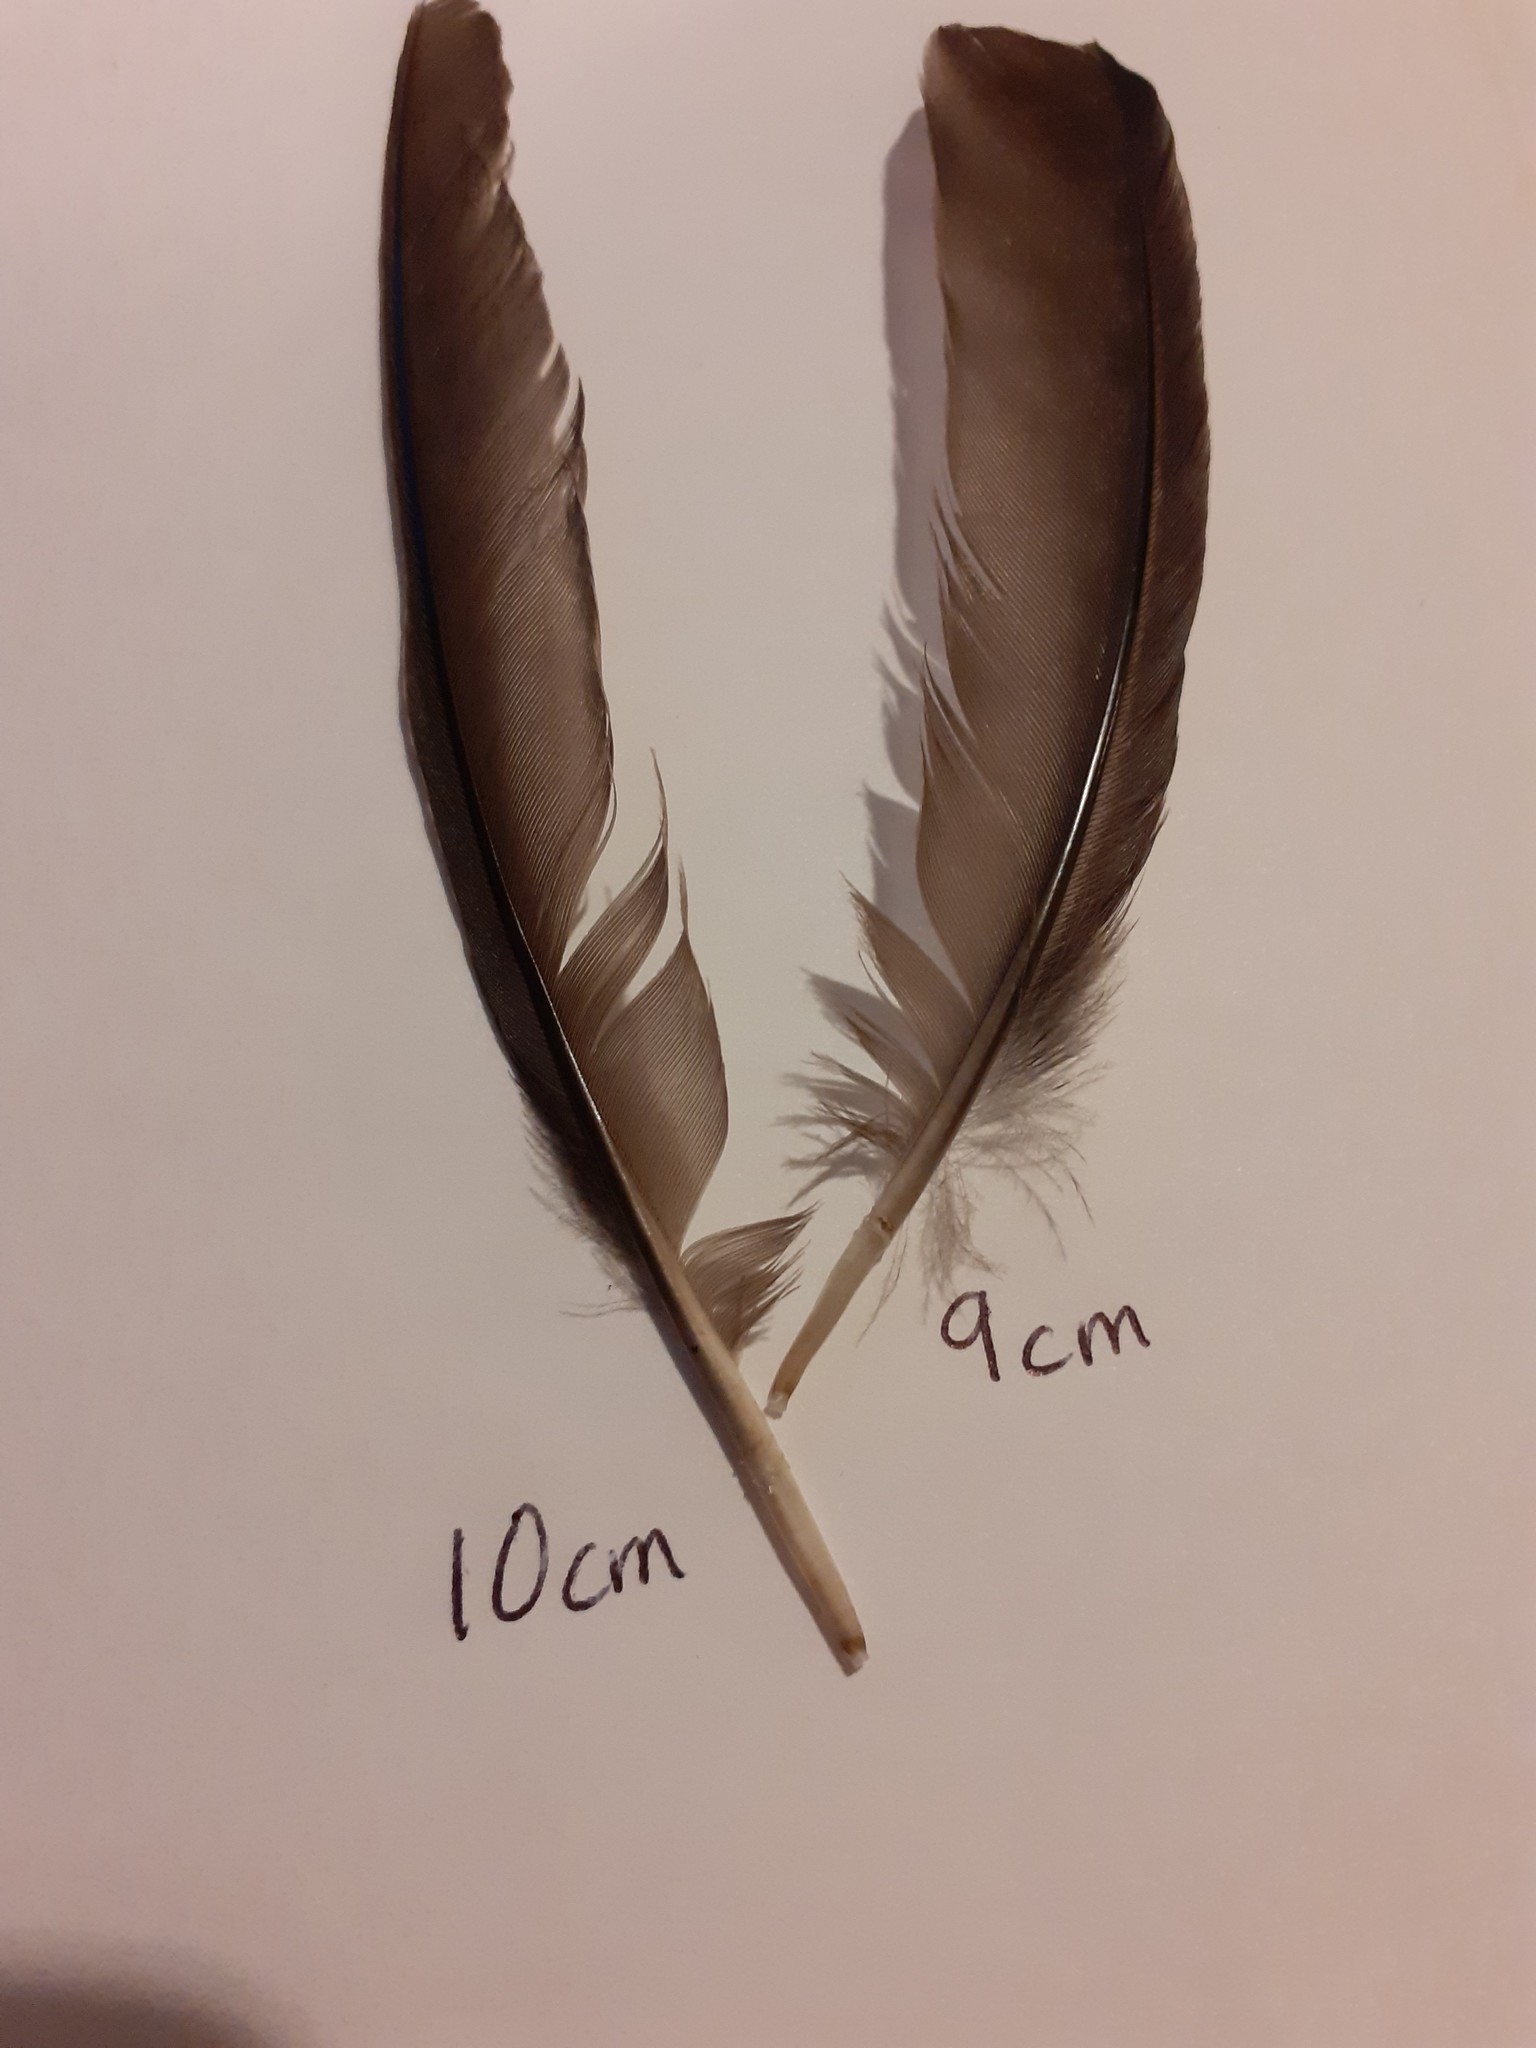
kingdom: Animalia
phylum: Chordata
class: Aves
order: Passeriformes
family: Turdidae
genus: Turdus
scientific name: Turdus merula
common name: Common blackbird
